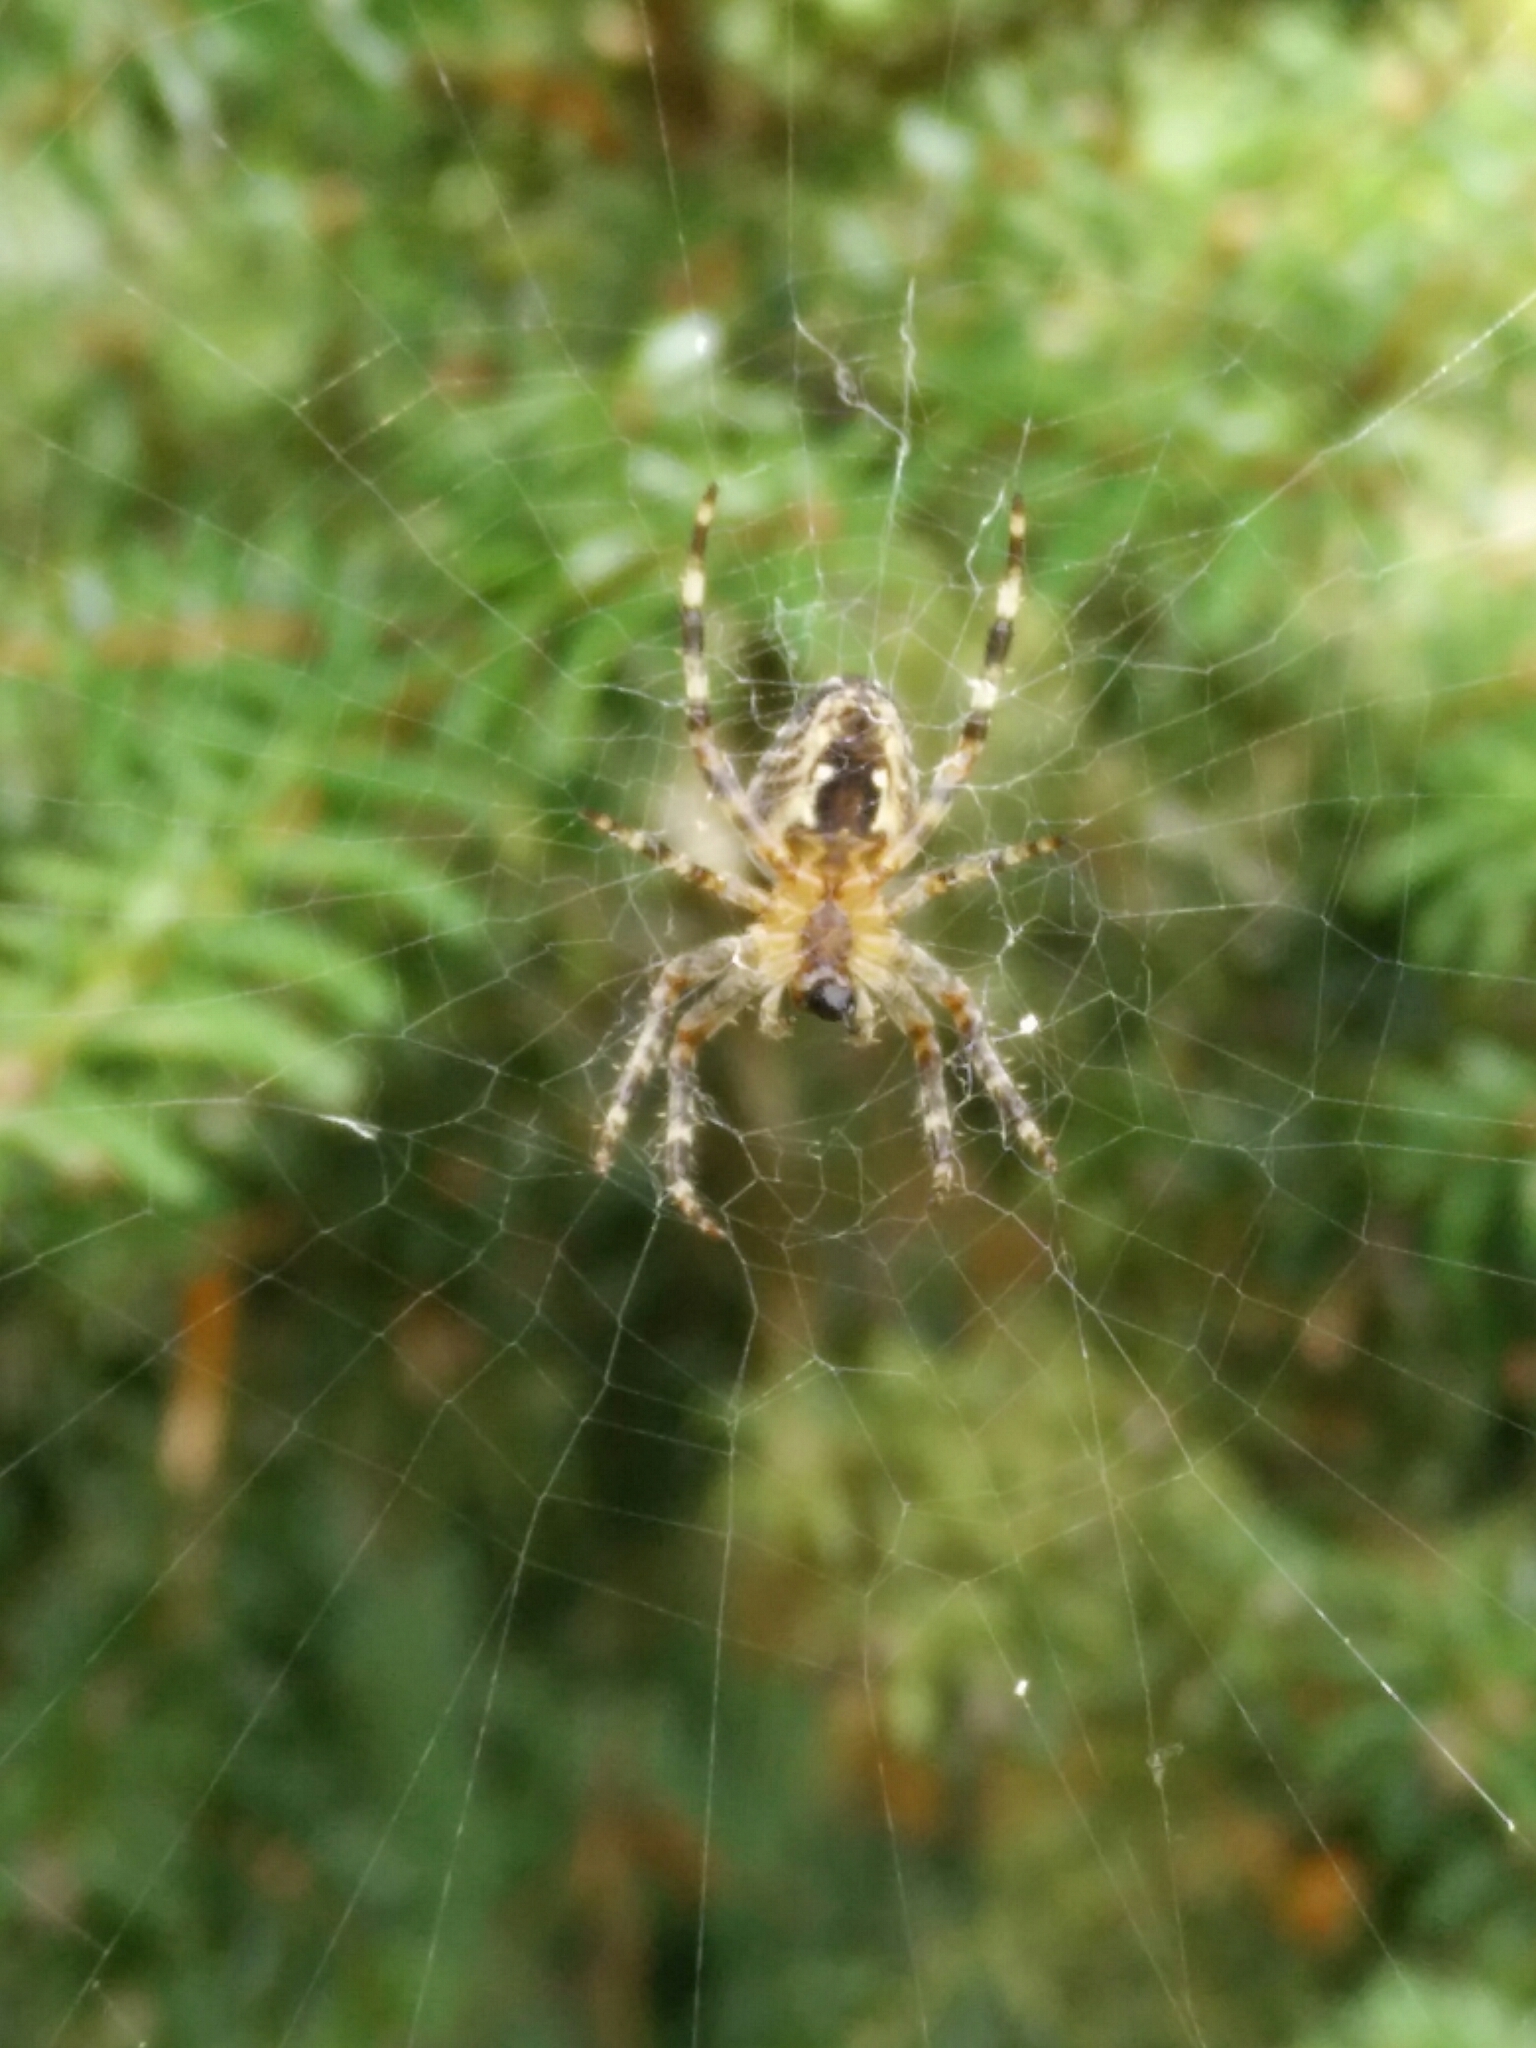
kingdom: Animalia
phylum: Arthropoda
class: Arachnida
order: Araneae
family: Araneidae
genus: Araneus
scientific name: Araneus diadematus
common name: Cross orbweaver
